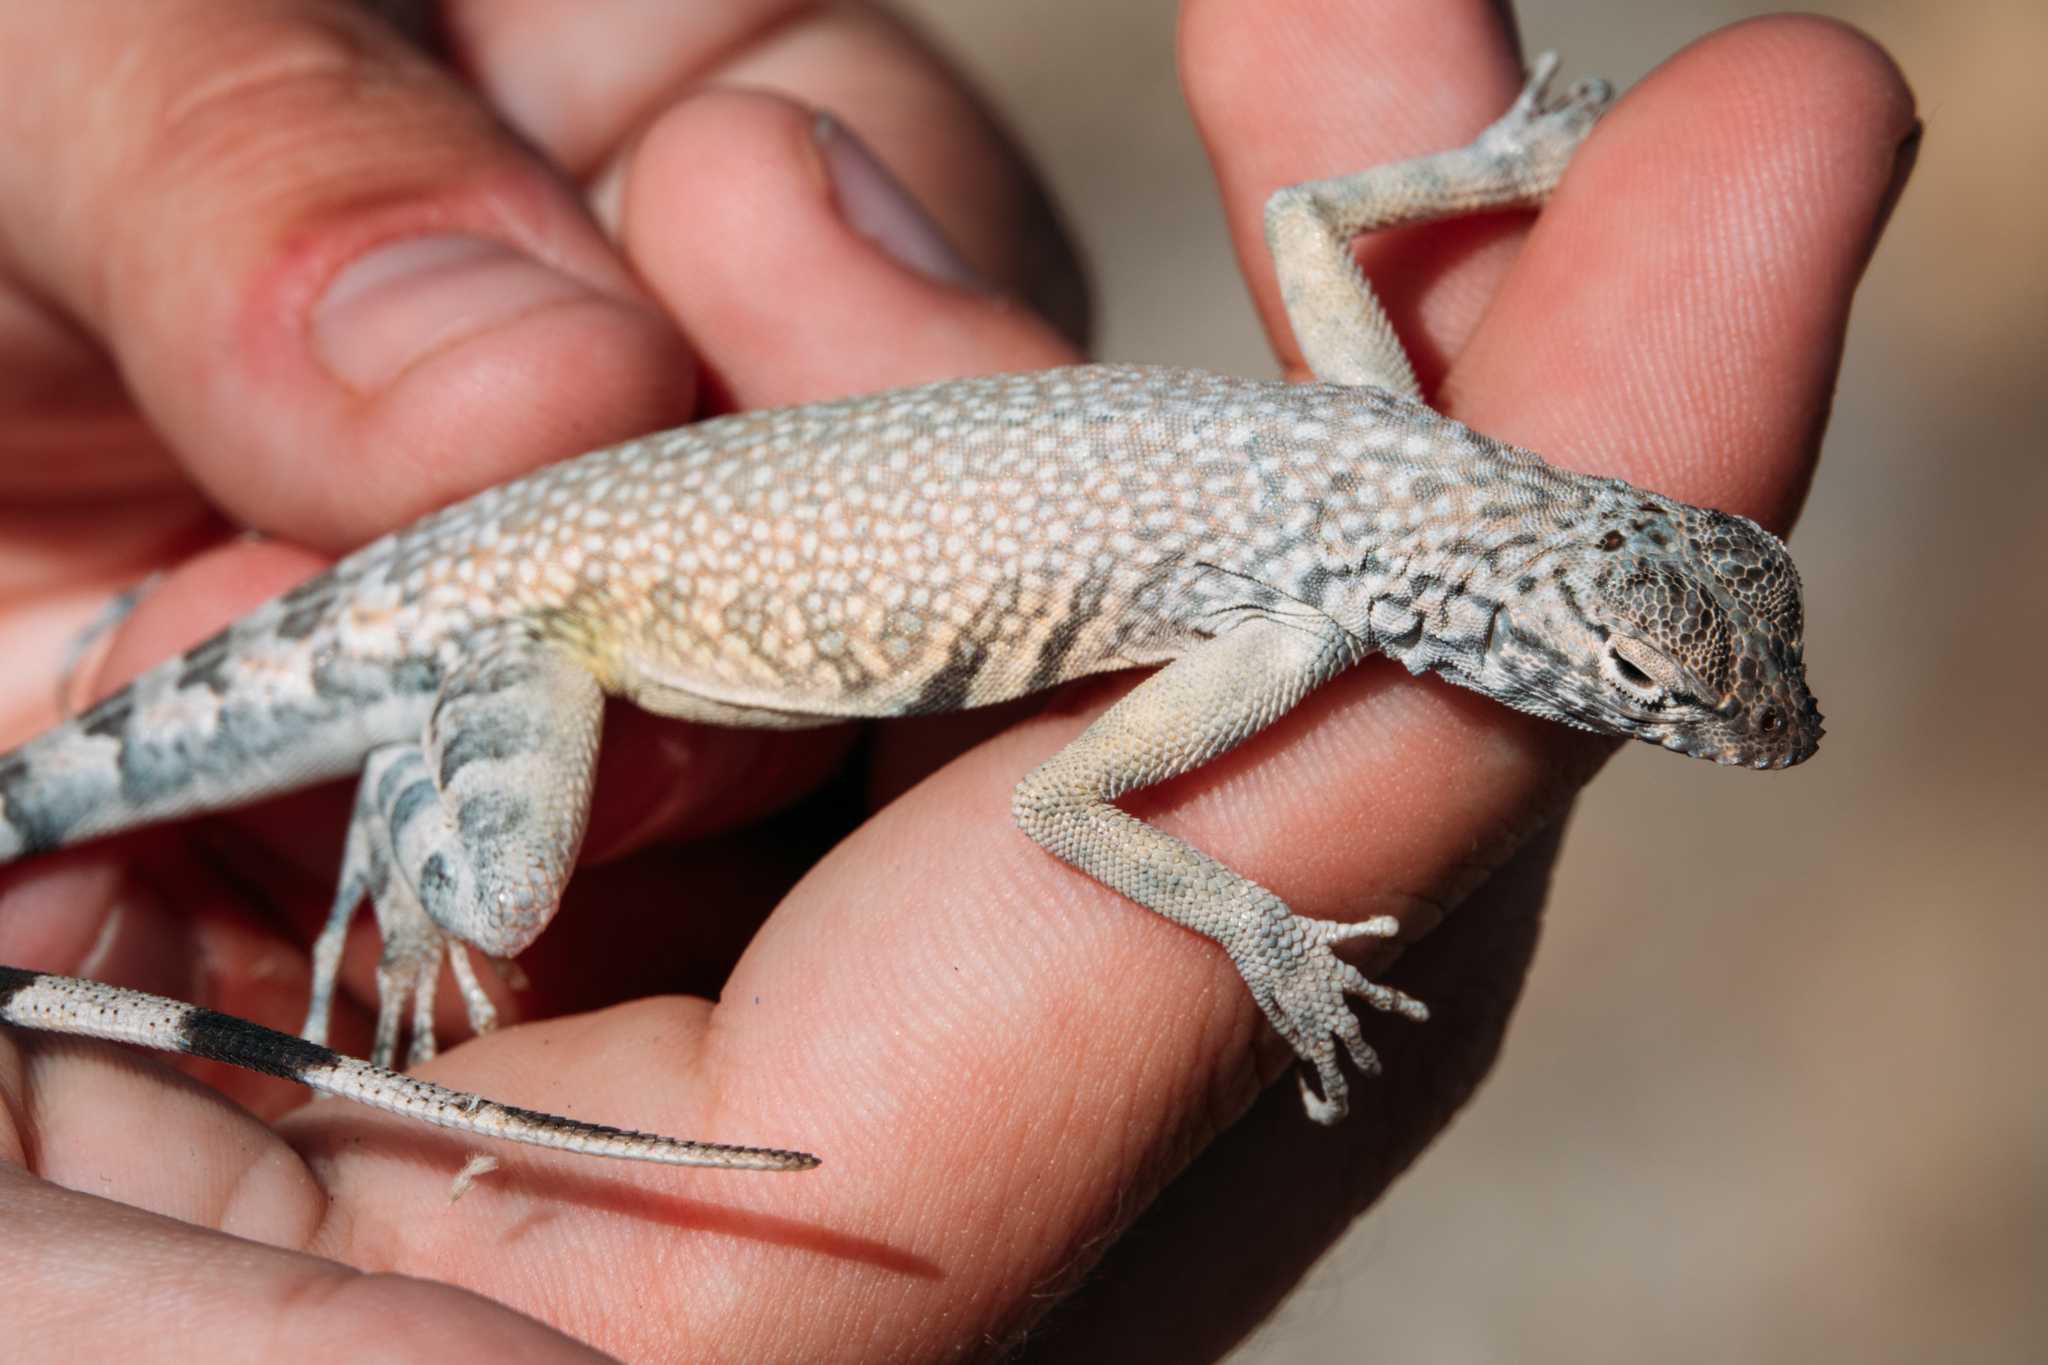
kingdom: Animalia
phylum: Chordata
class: Squamata
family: Phrynosomatidae
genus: Callisaurus
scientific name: Callisaurus draconoides
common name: Zebra-tailed lizard
